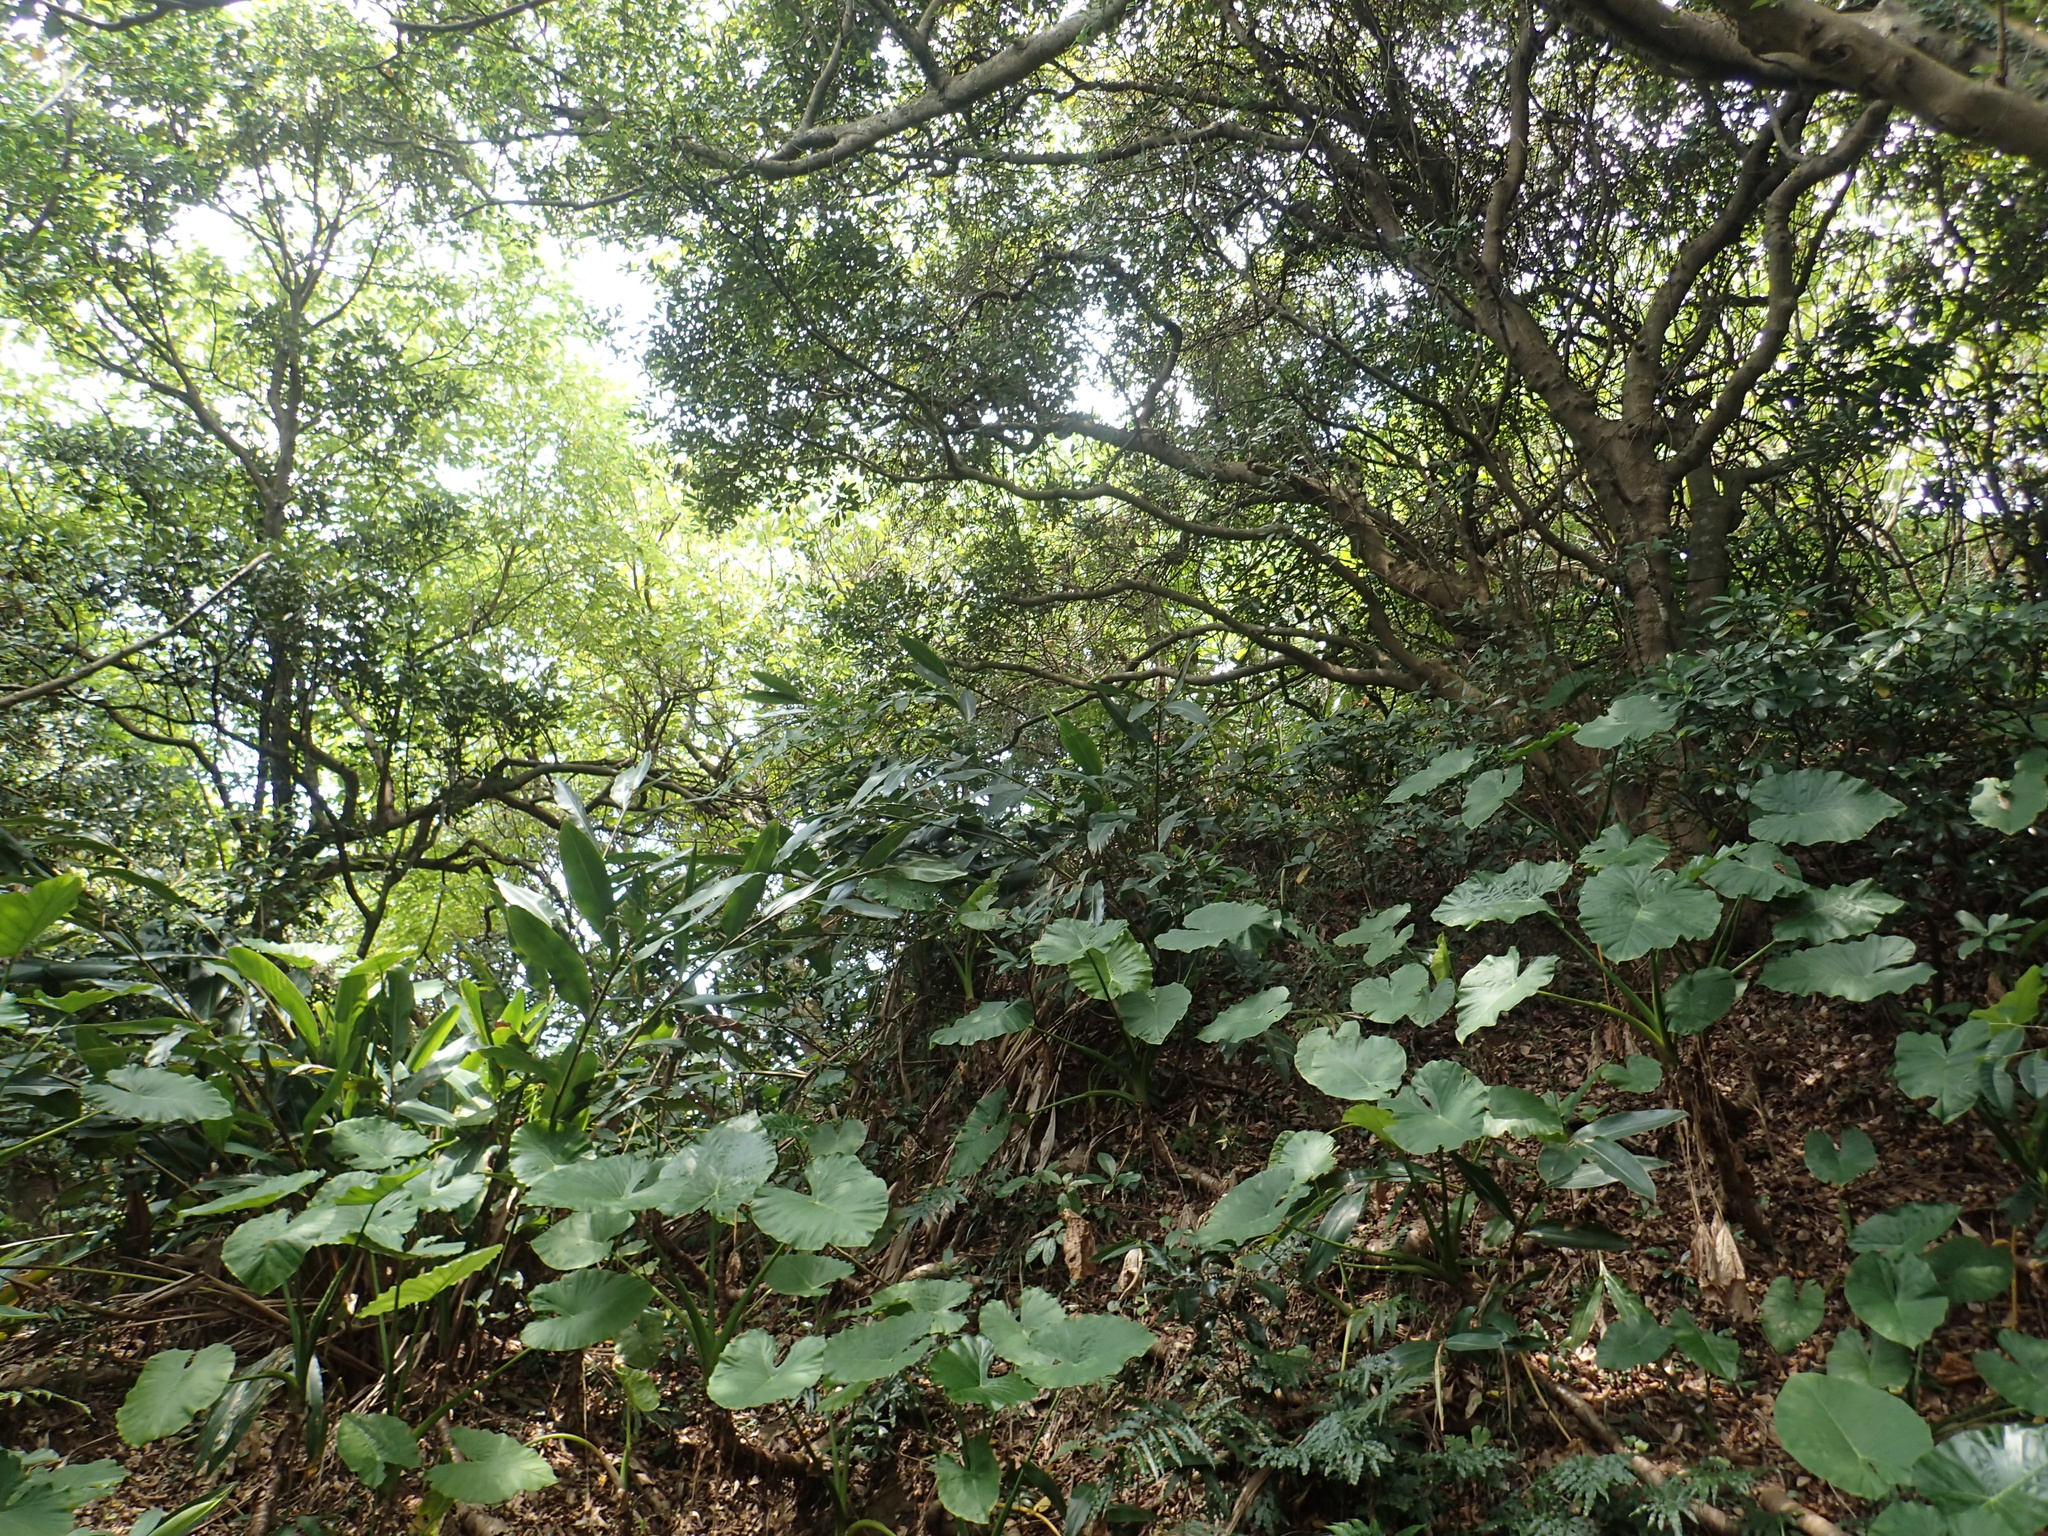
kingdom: Plantae
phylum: Tracheophyta
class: Liliopsida
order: Alismatales
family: Araceae
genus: Alocasia
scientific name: Alocasia odora
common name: Asian taro
